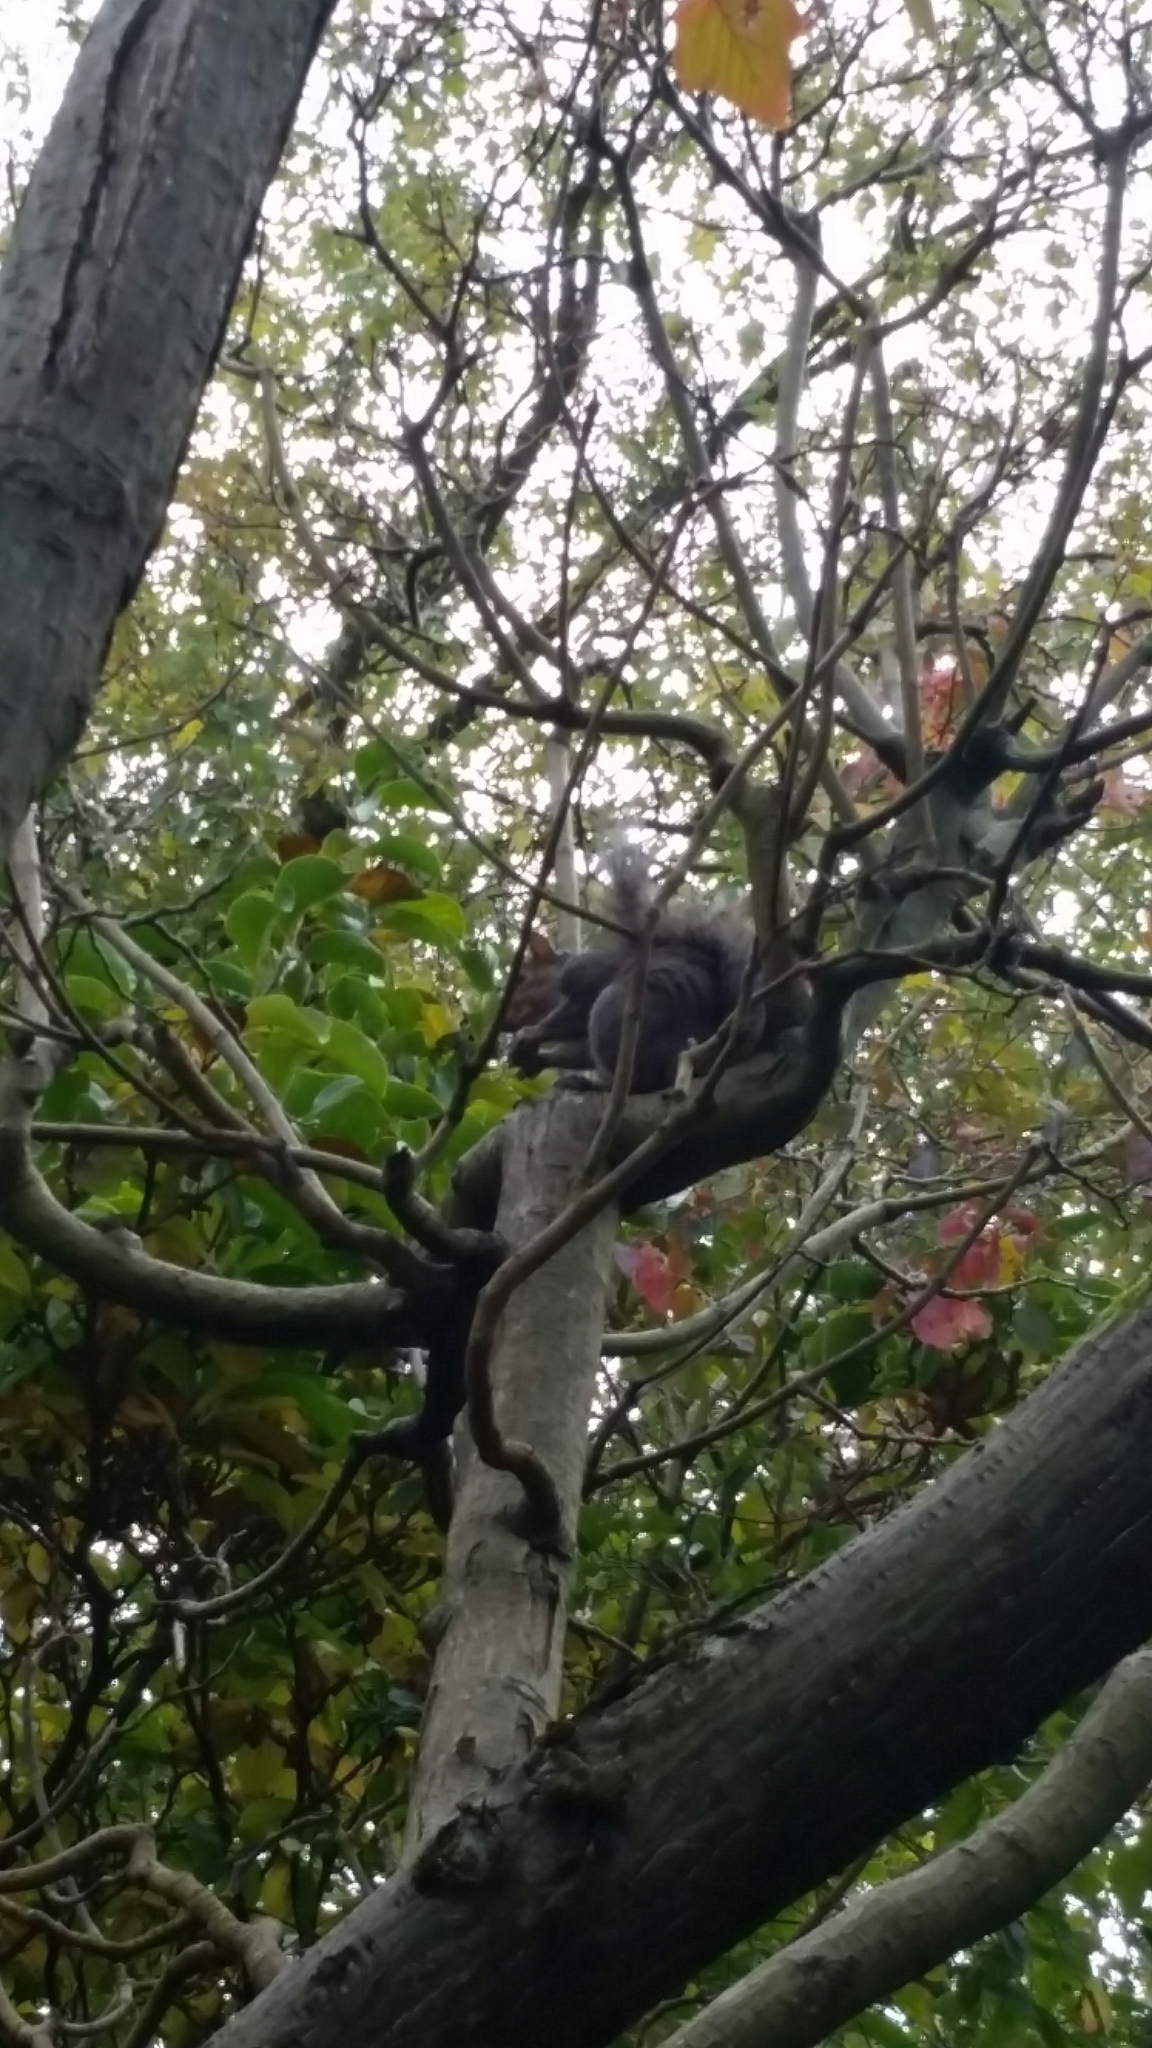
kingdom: Animalia
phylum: Chordata
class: Mammalia
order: Rodentia
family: Sciuridae
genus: Sciurus
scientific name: Sciurus carolinensis
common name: Eastern gray squirrel
